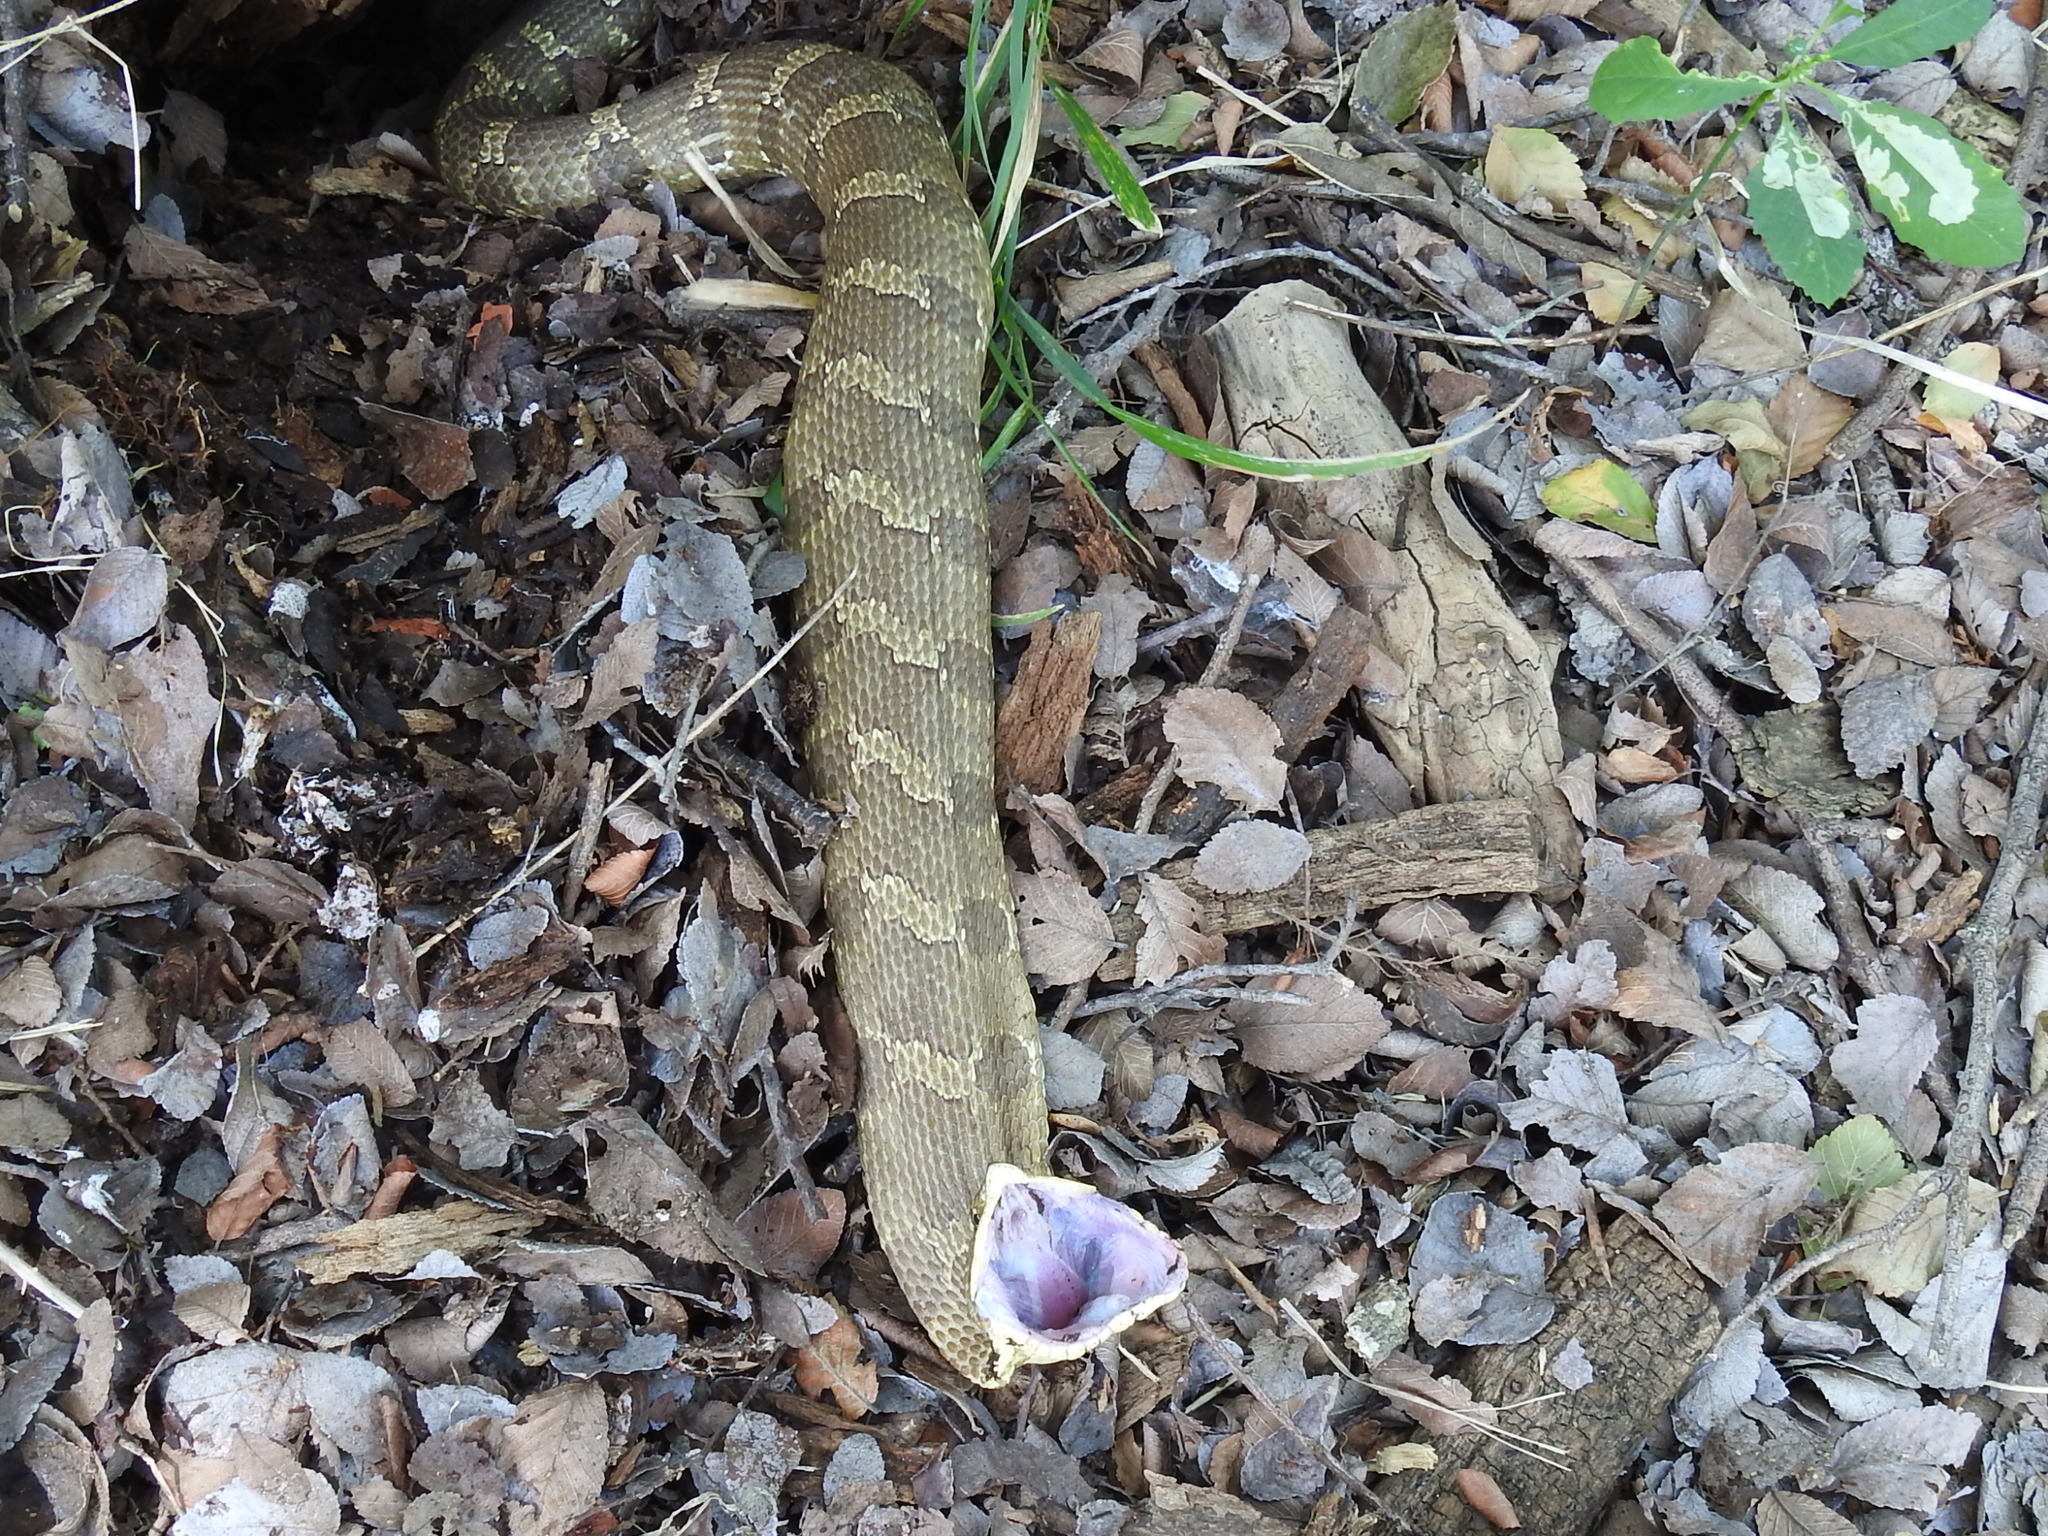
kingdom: Animalia
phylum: Chordata
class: Squamata
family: Colubridae
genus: Heterodon
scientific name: Heterodon platirhinos
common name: Eastern hognose snake
